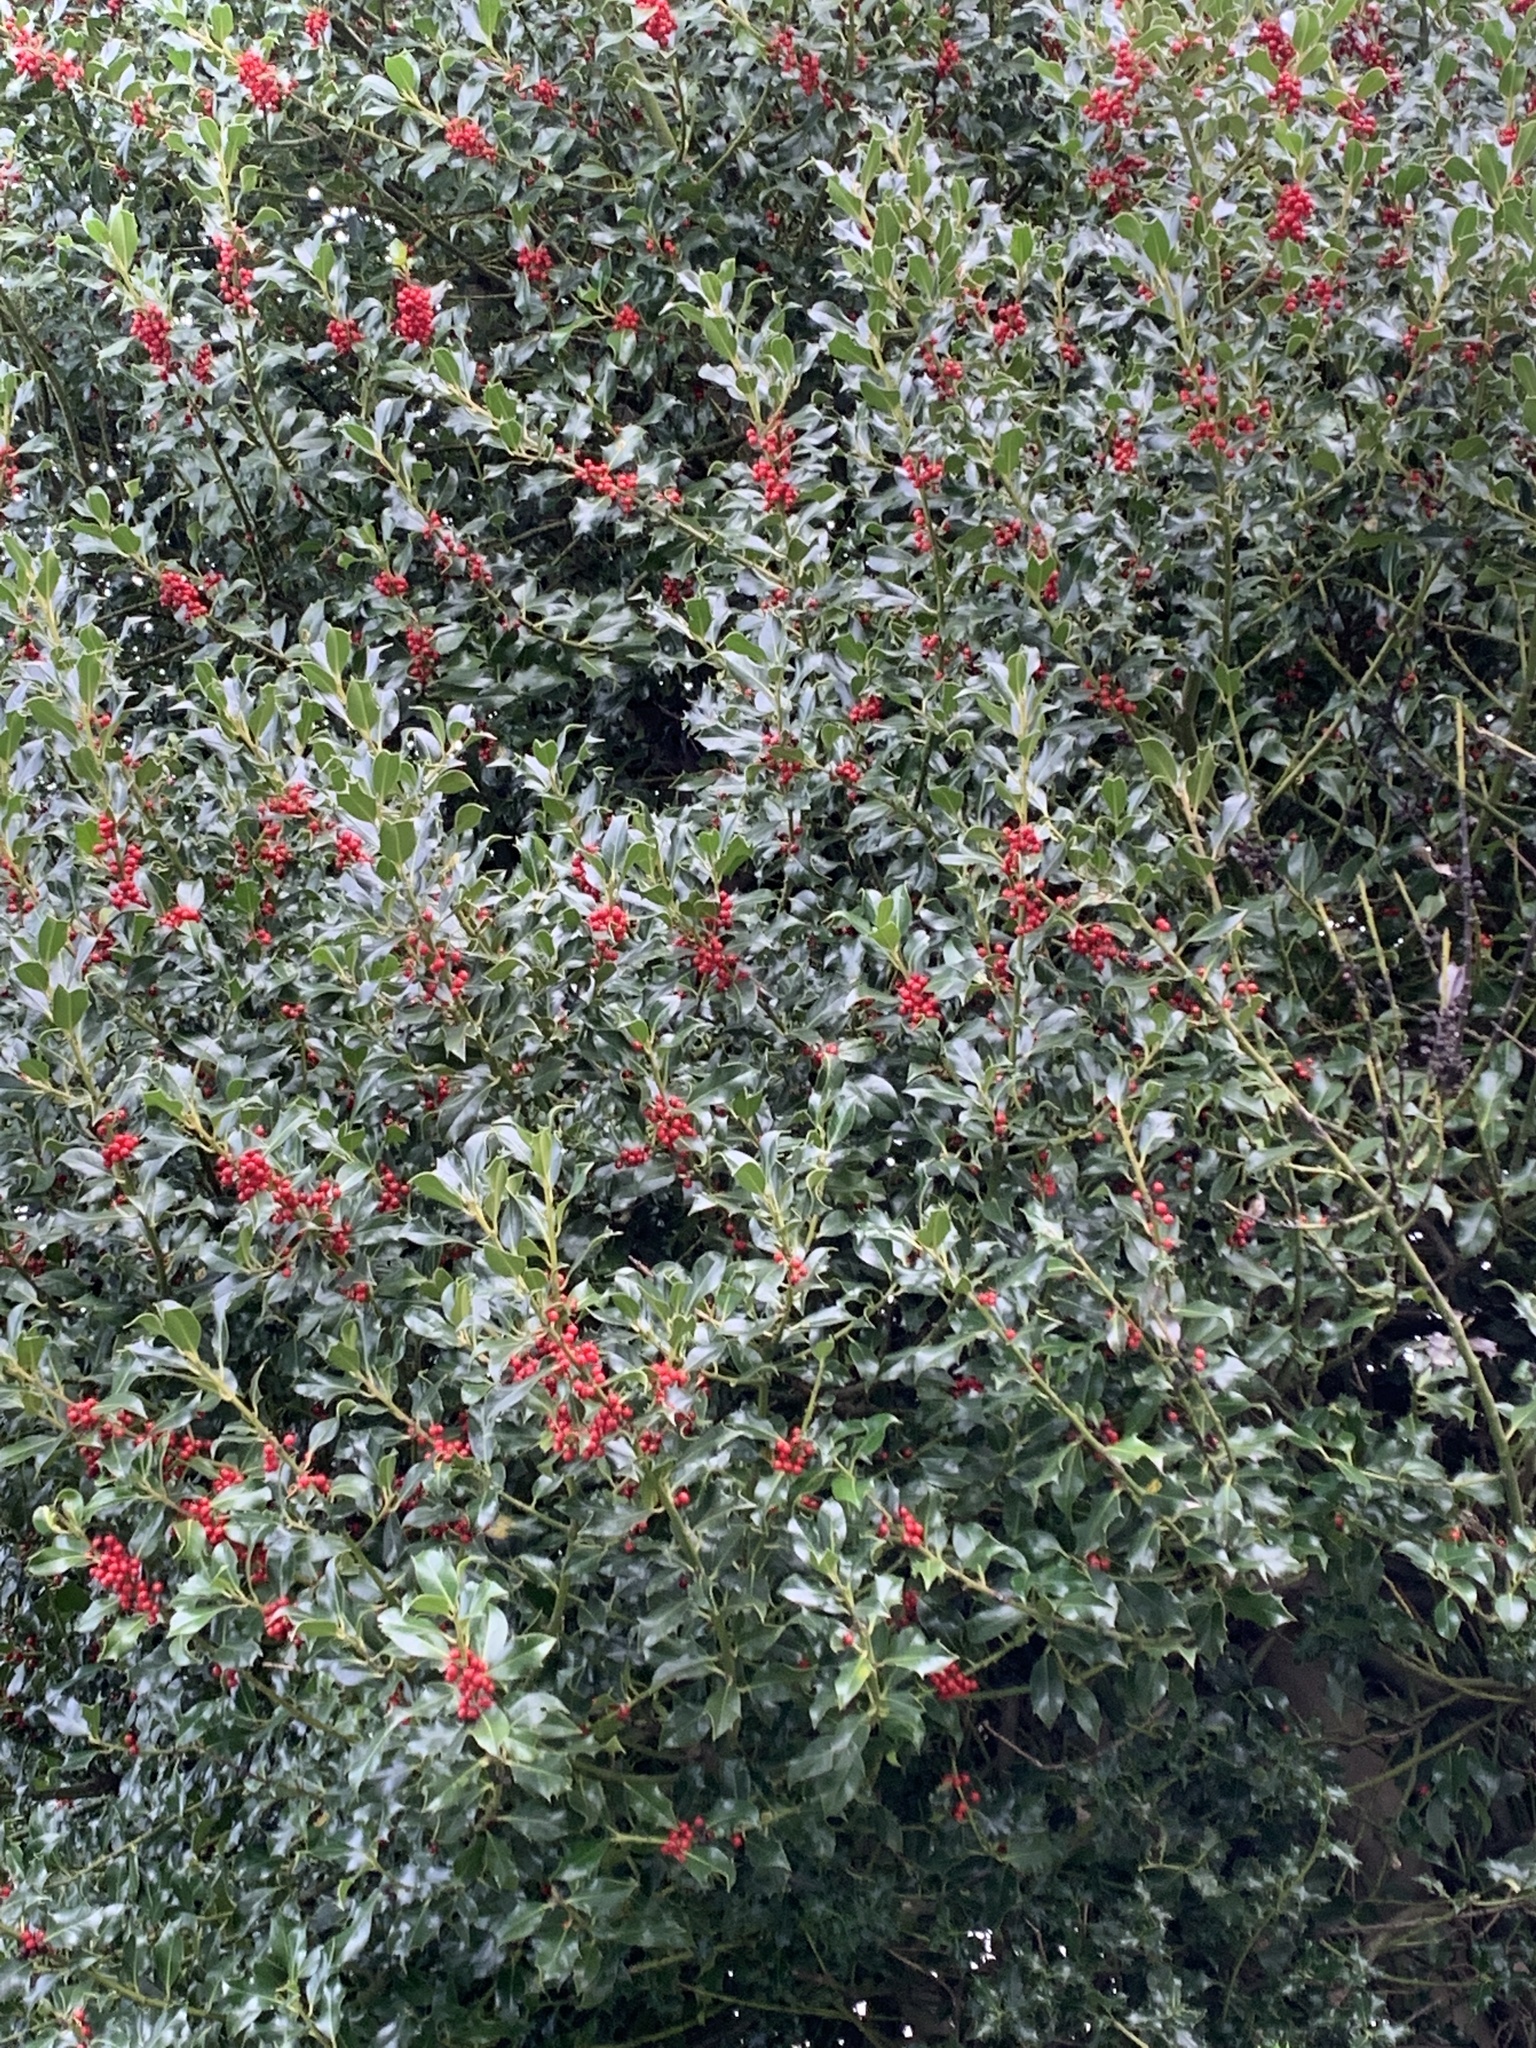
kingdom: Plantae
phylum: Tracheophyta
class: Magnoliopsida
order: Aquifoliales
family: Aquifoliaceae
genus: Ilex
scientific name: Ilex aquifolium
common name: English holly
